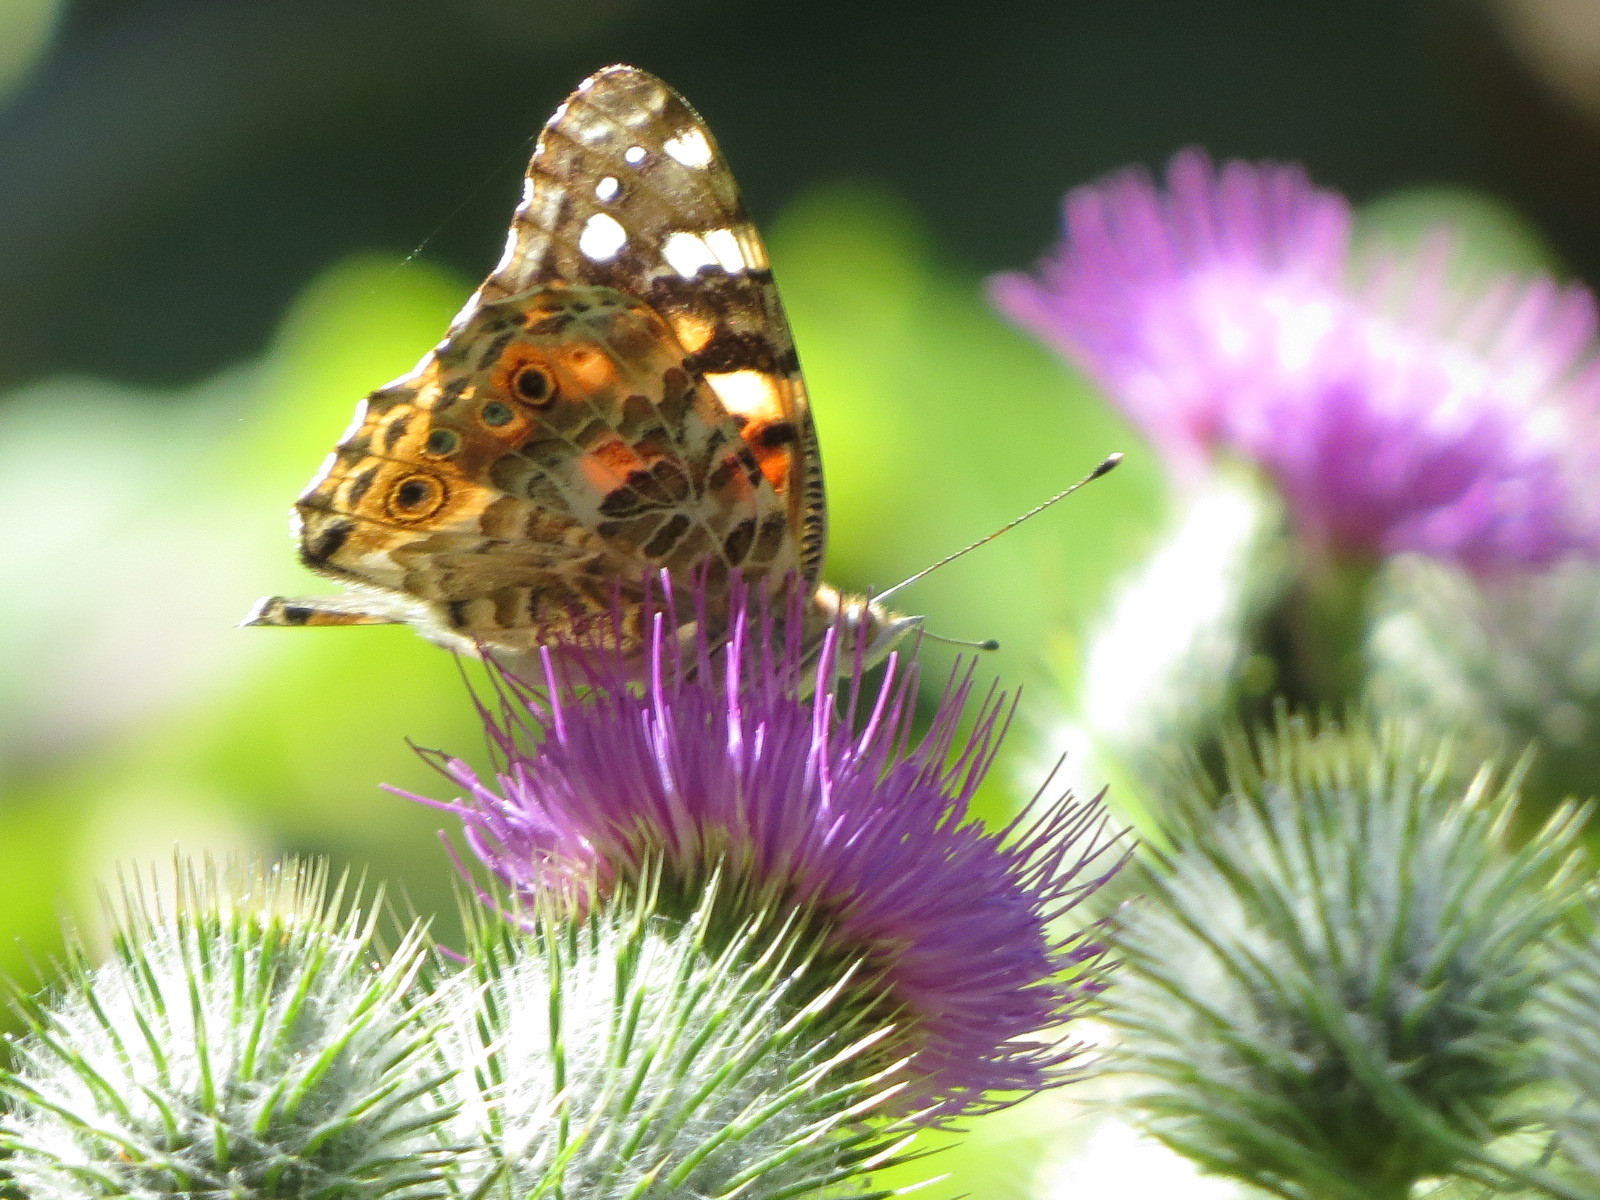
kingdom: Animalia
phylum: Arthropoda
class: Insecta
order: Lepidoptera
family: Nymphalidae
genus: Vanessa
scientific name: Vanessa cardui
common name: Painted lady
